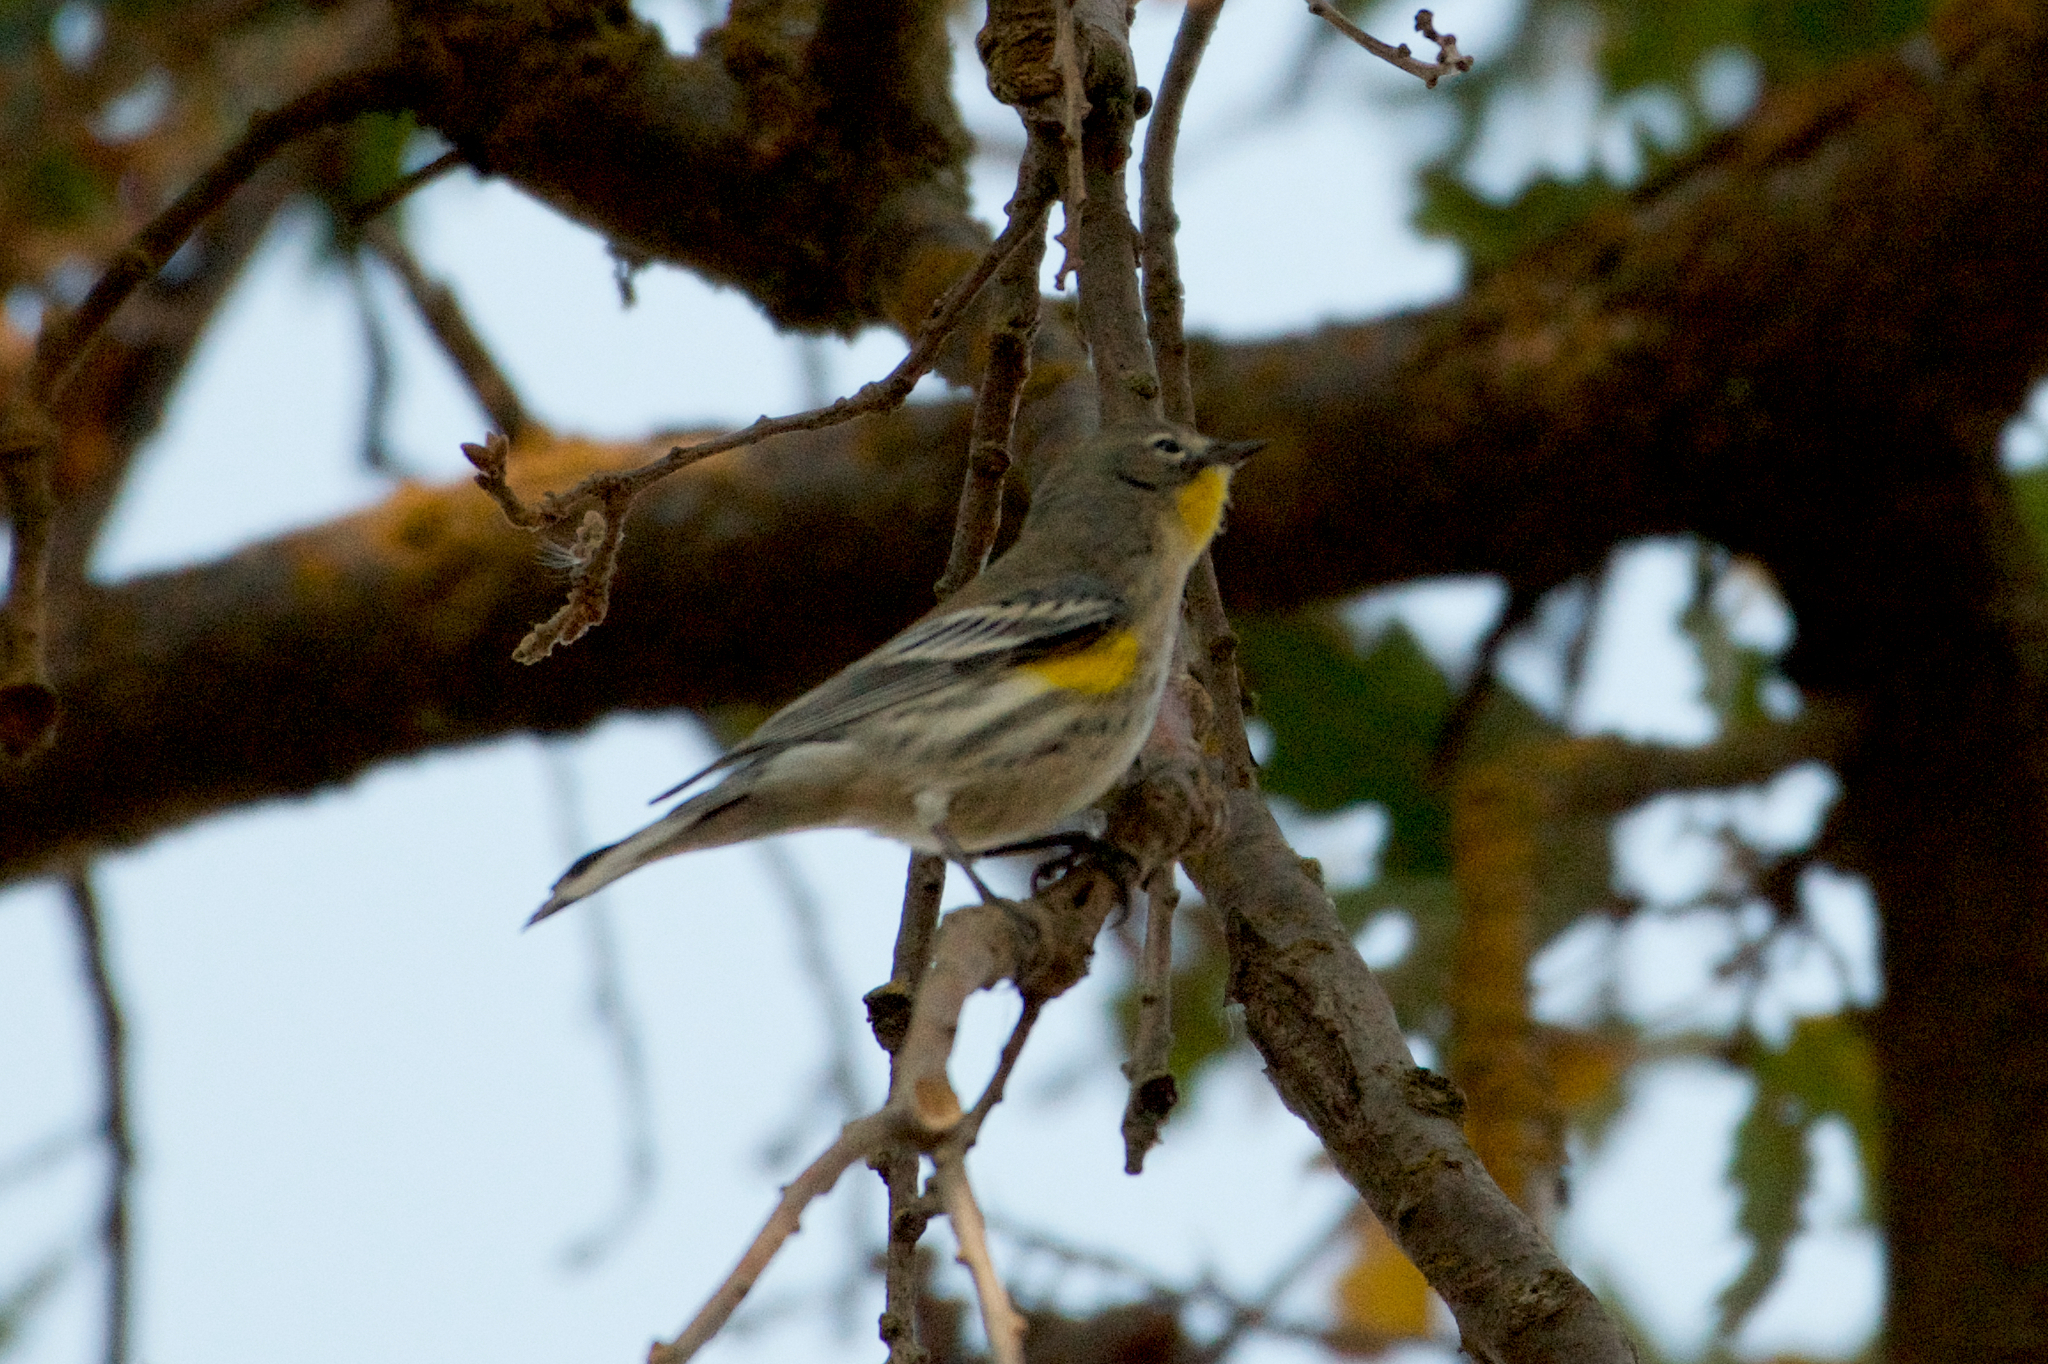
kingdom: Animalia
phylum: Chordata
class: Aves
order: Passeriformes
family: Parulidae
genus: Setophaga
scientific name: Setophaga coronata
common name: Myrtle warbler
